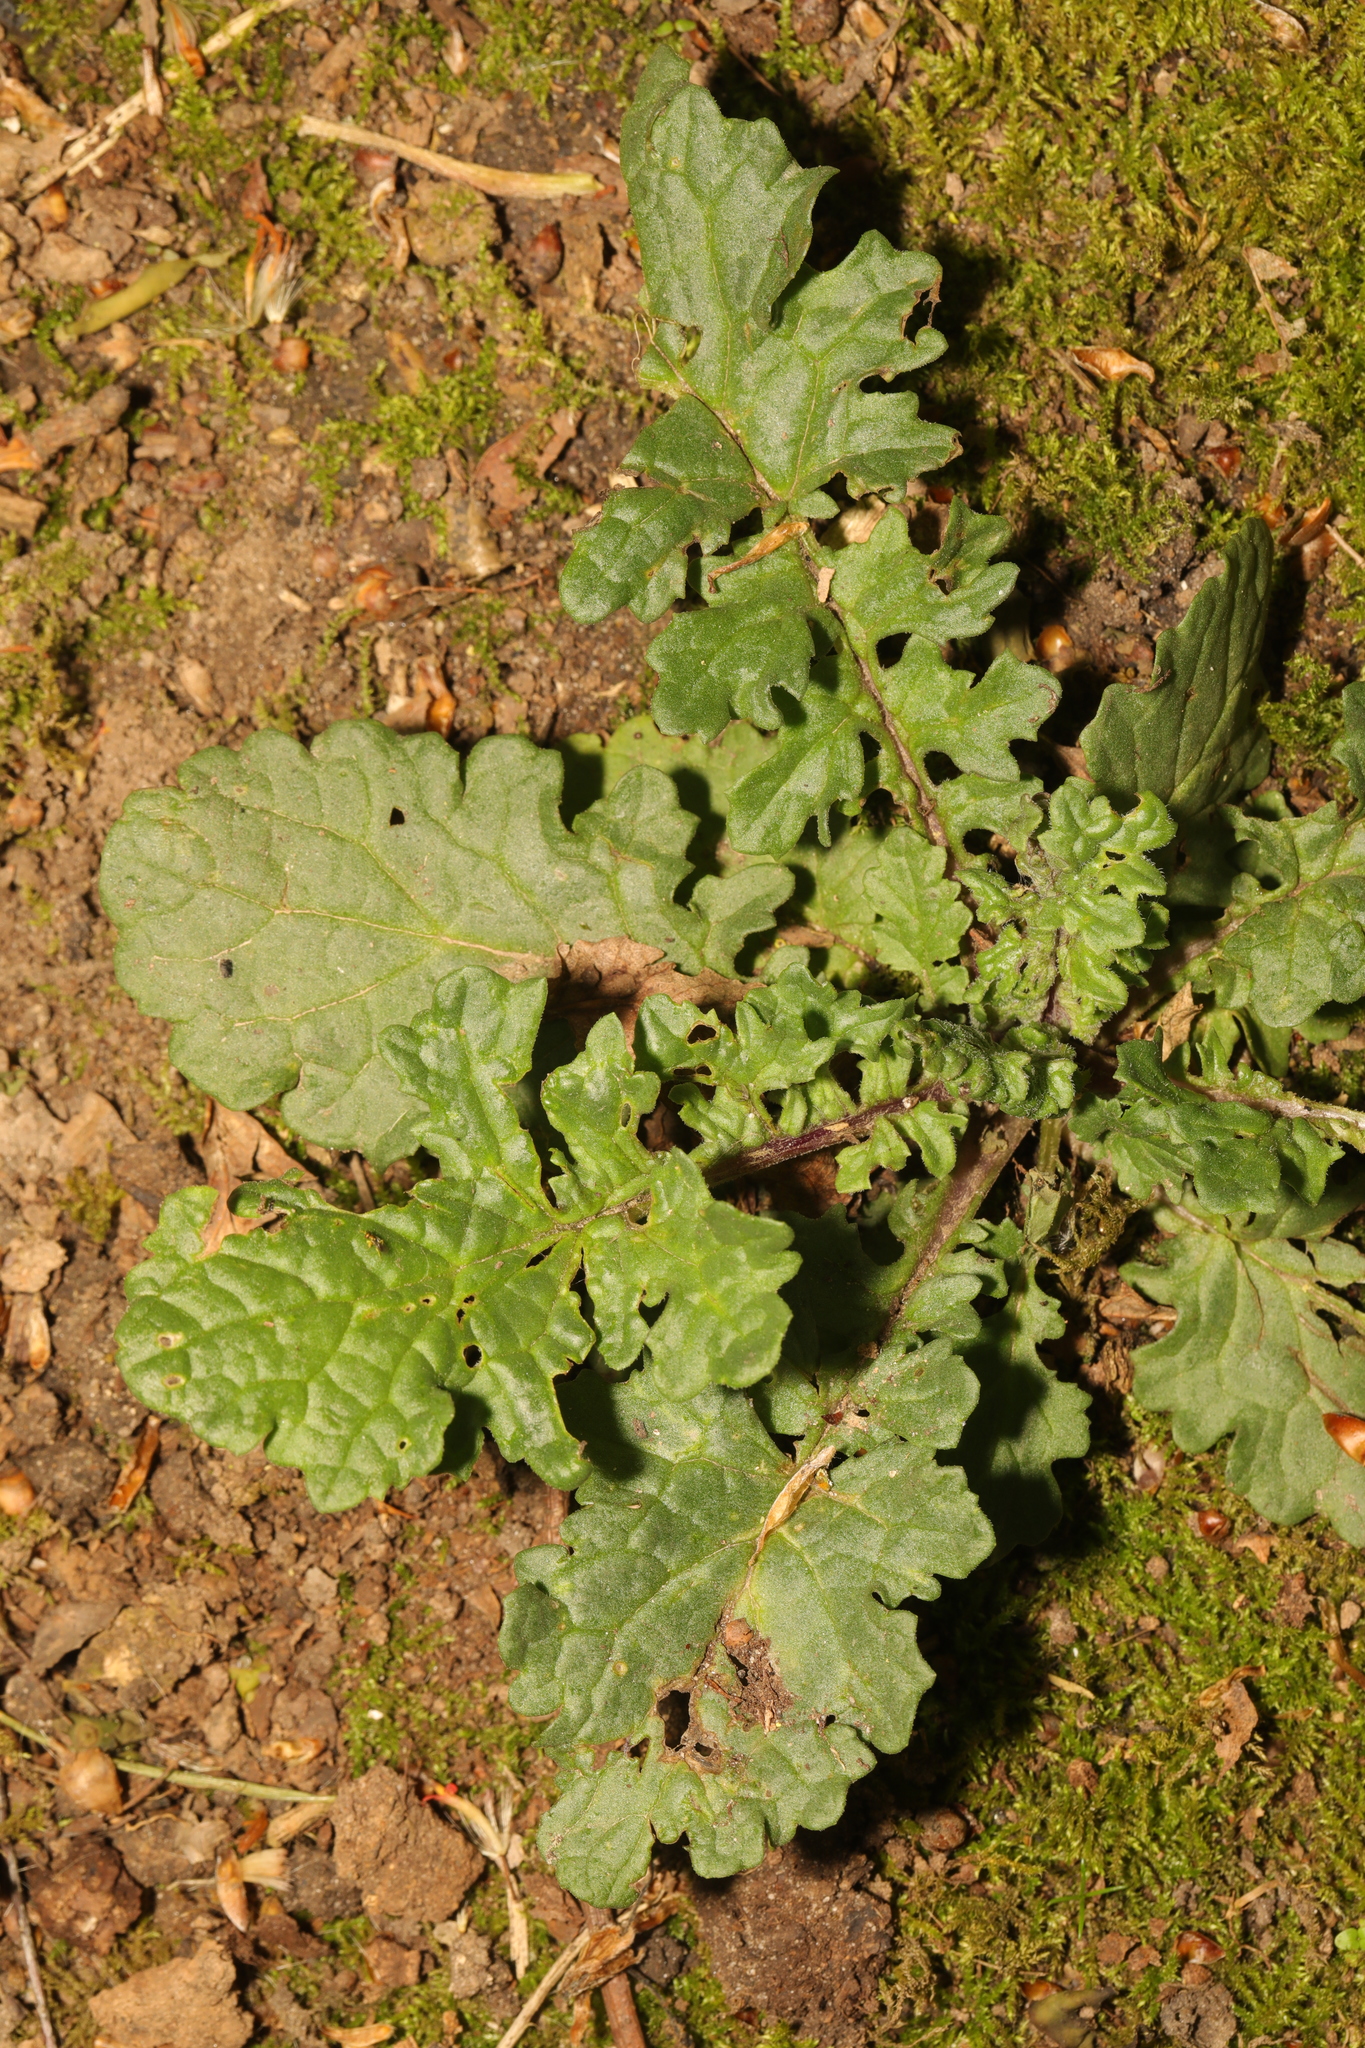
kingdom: Plantae
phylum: Tracheophyta
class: Magnoliopsida
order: Asterales
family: Asteraceae
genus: Jacobaea
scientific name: Jacobaea vulgaris
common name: Stinking willie
